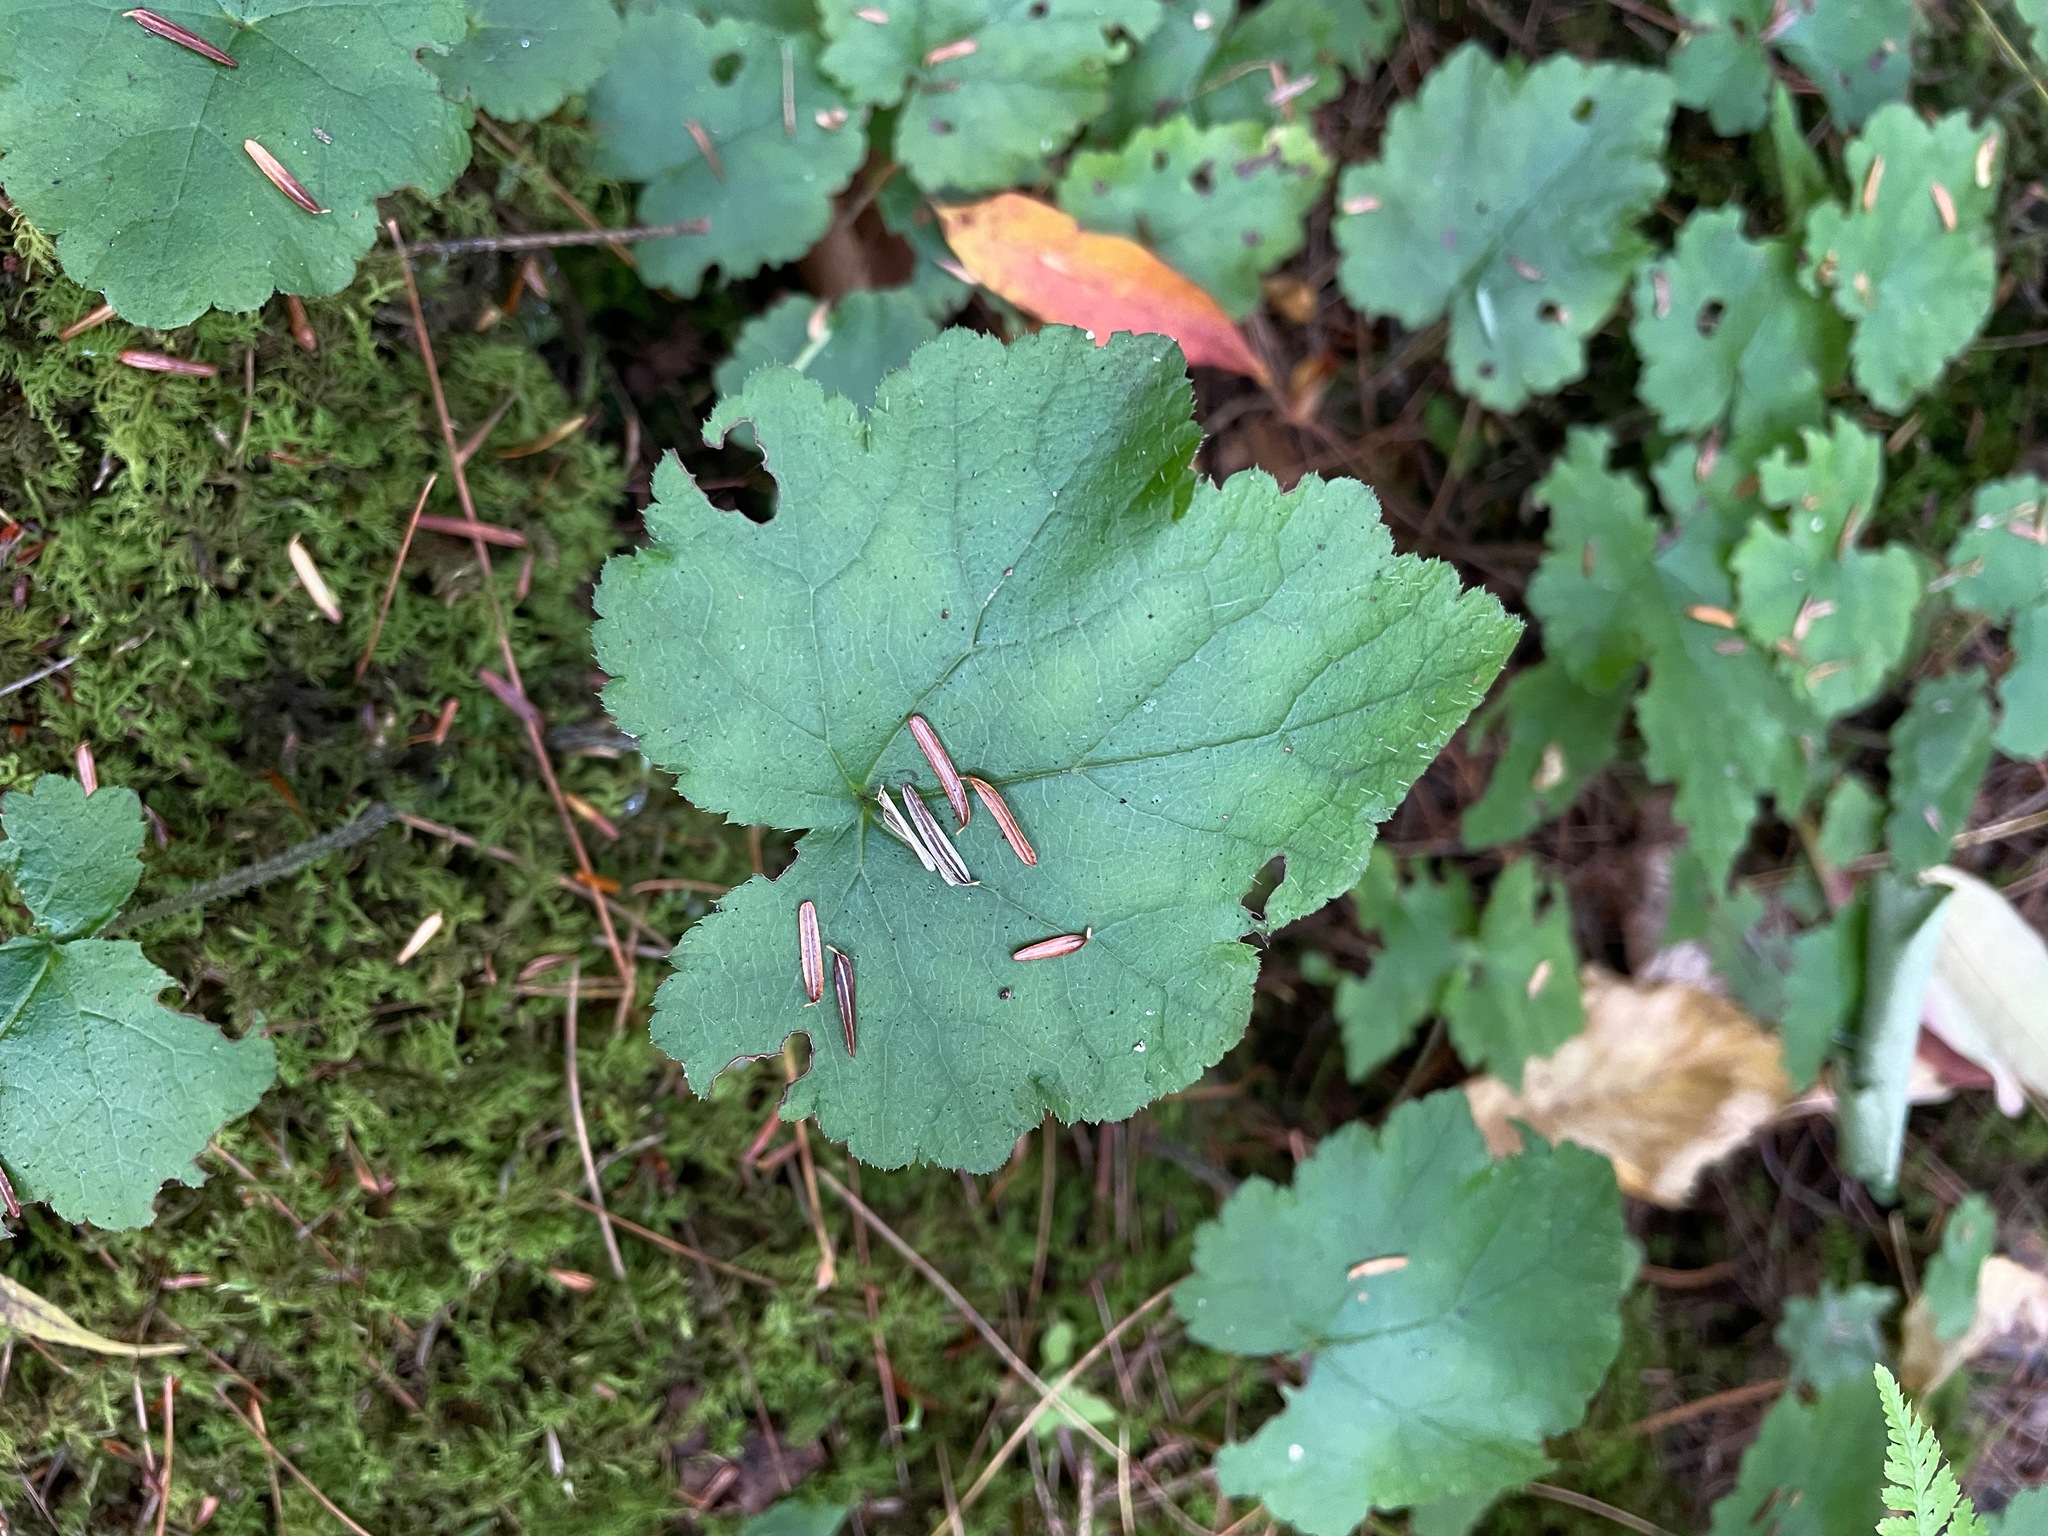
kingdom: Plantae
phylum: Tracheophyta
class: Magnoliopsida
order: Saxifragales
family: Saxifragaceae
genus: Tiarella
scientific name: Tiarella stolonifera
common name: Stoloniferous foamflower
